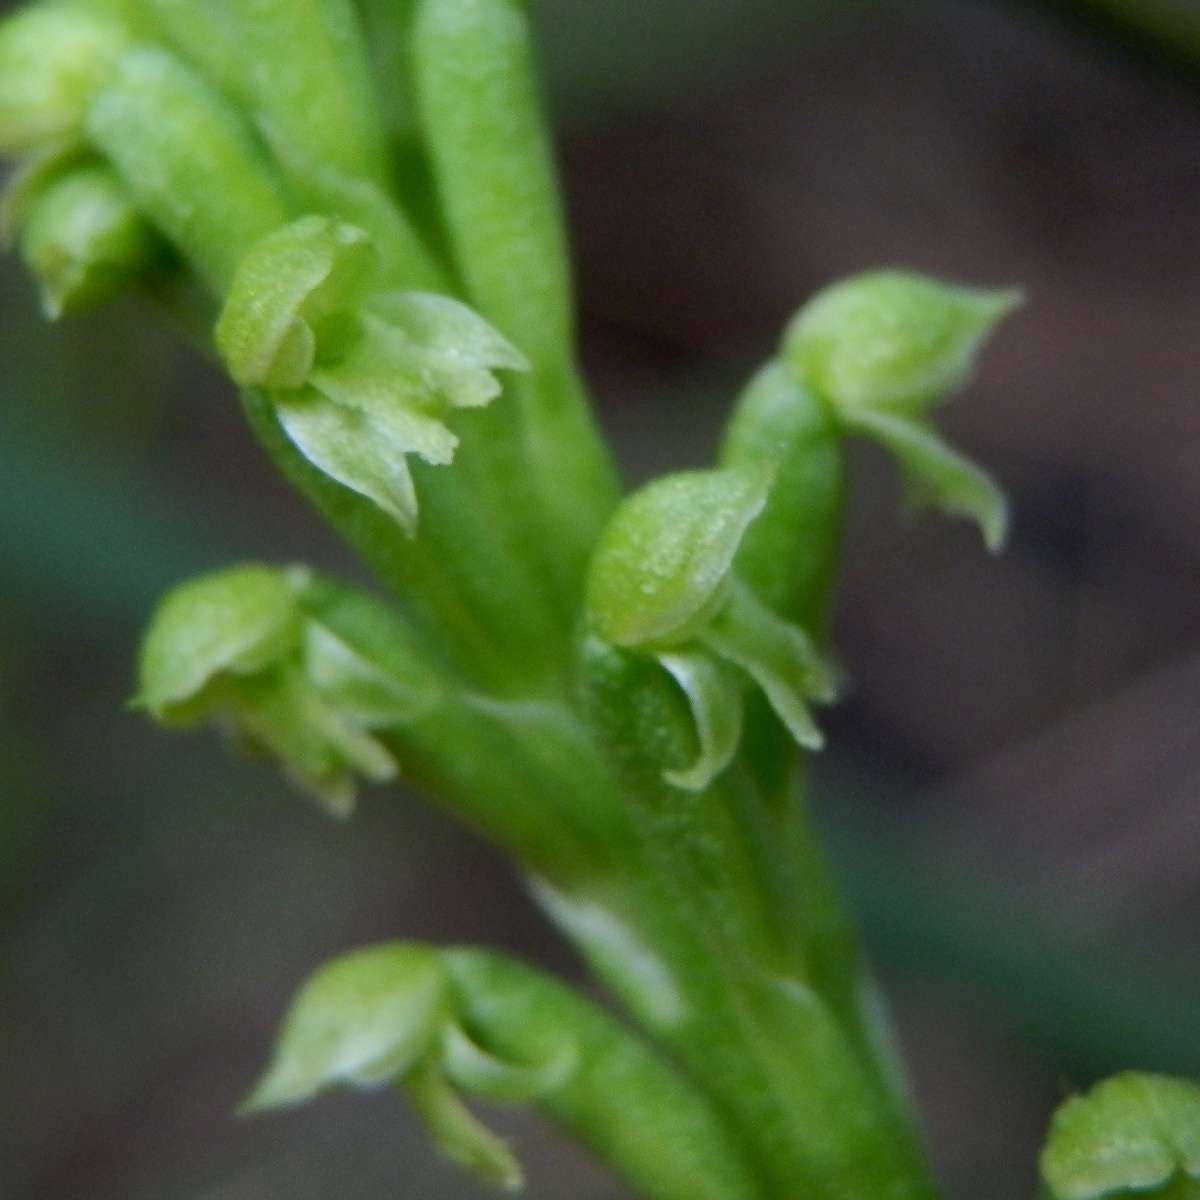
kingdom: Plantae
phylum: Tracheophyta
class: Liliopsida
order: Asparagales
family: Orchidaceae
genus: Microtis
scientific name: Microtis arenaria
